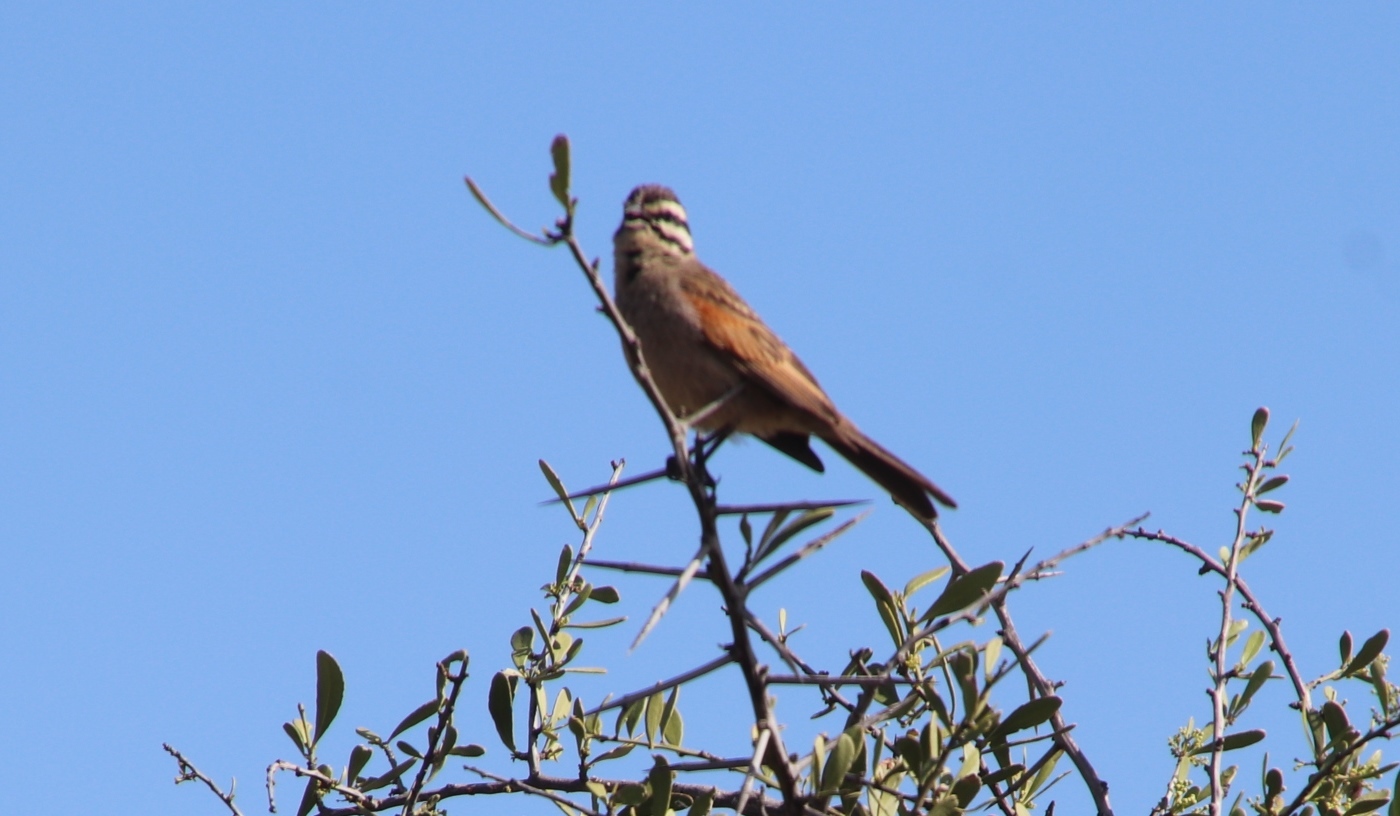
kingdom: Animalia
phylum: Chordata
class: Aves
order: Passeriformes
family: Emberizidae
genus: Emberiza
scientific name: Emberiza capensis
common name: Cape bunting
